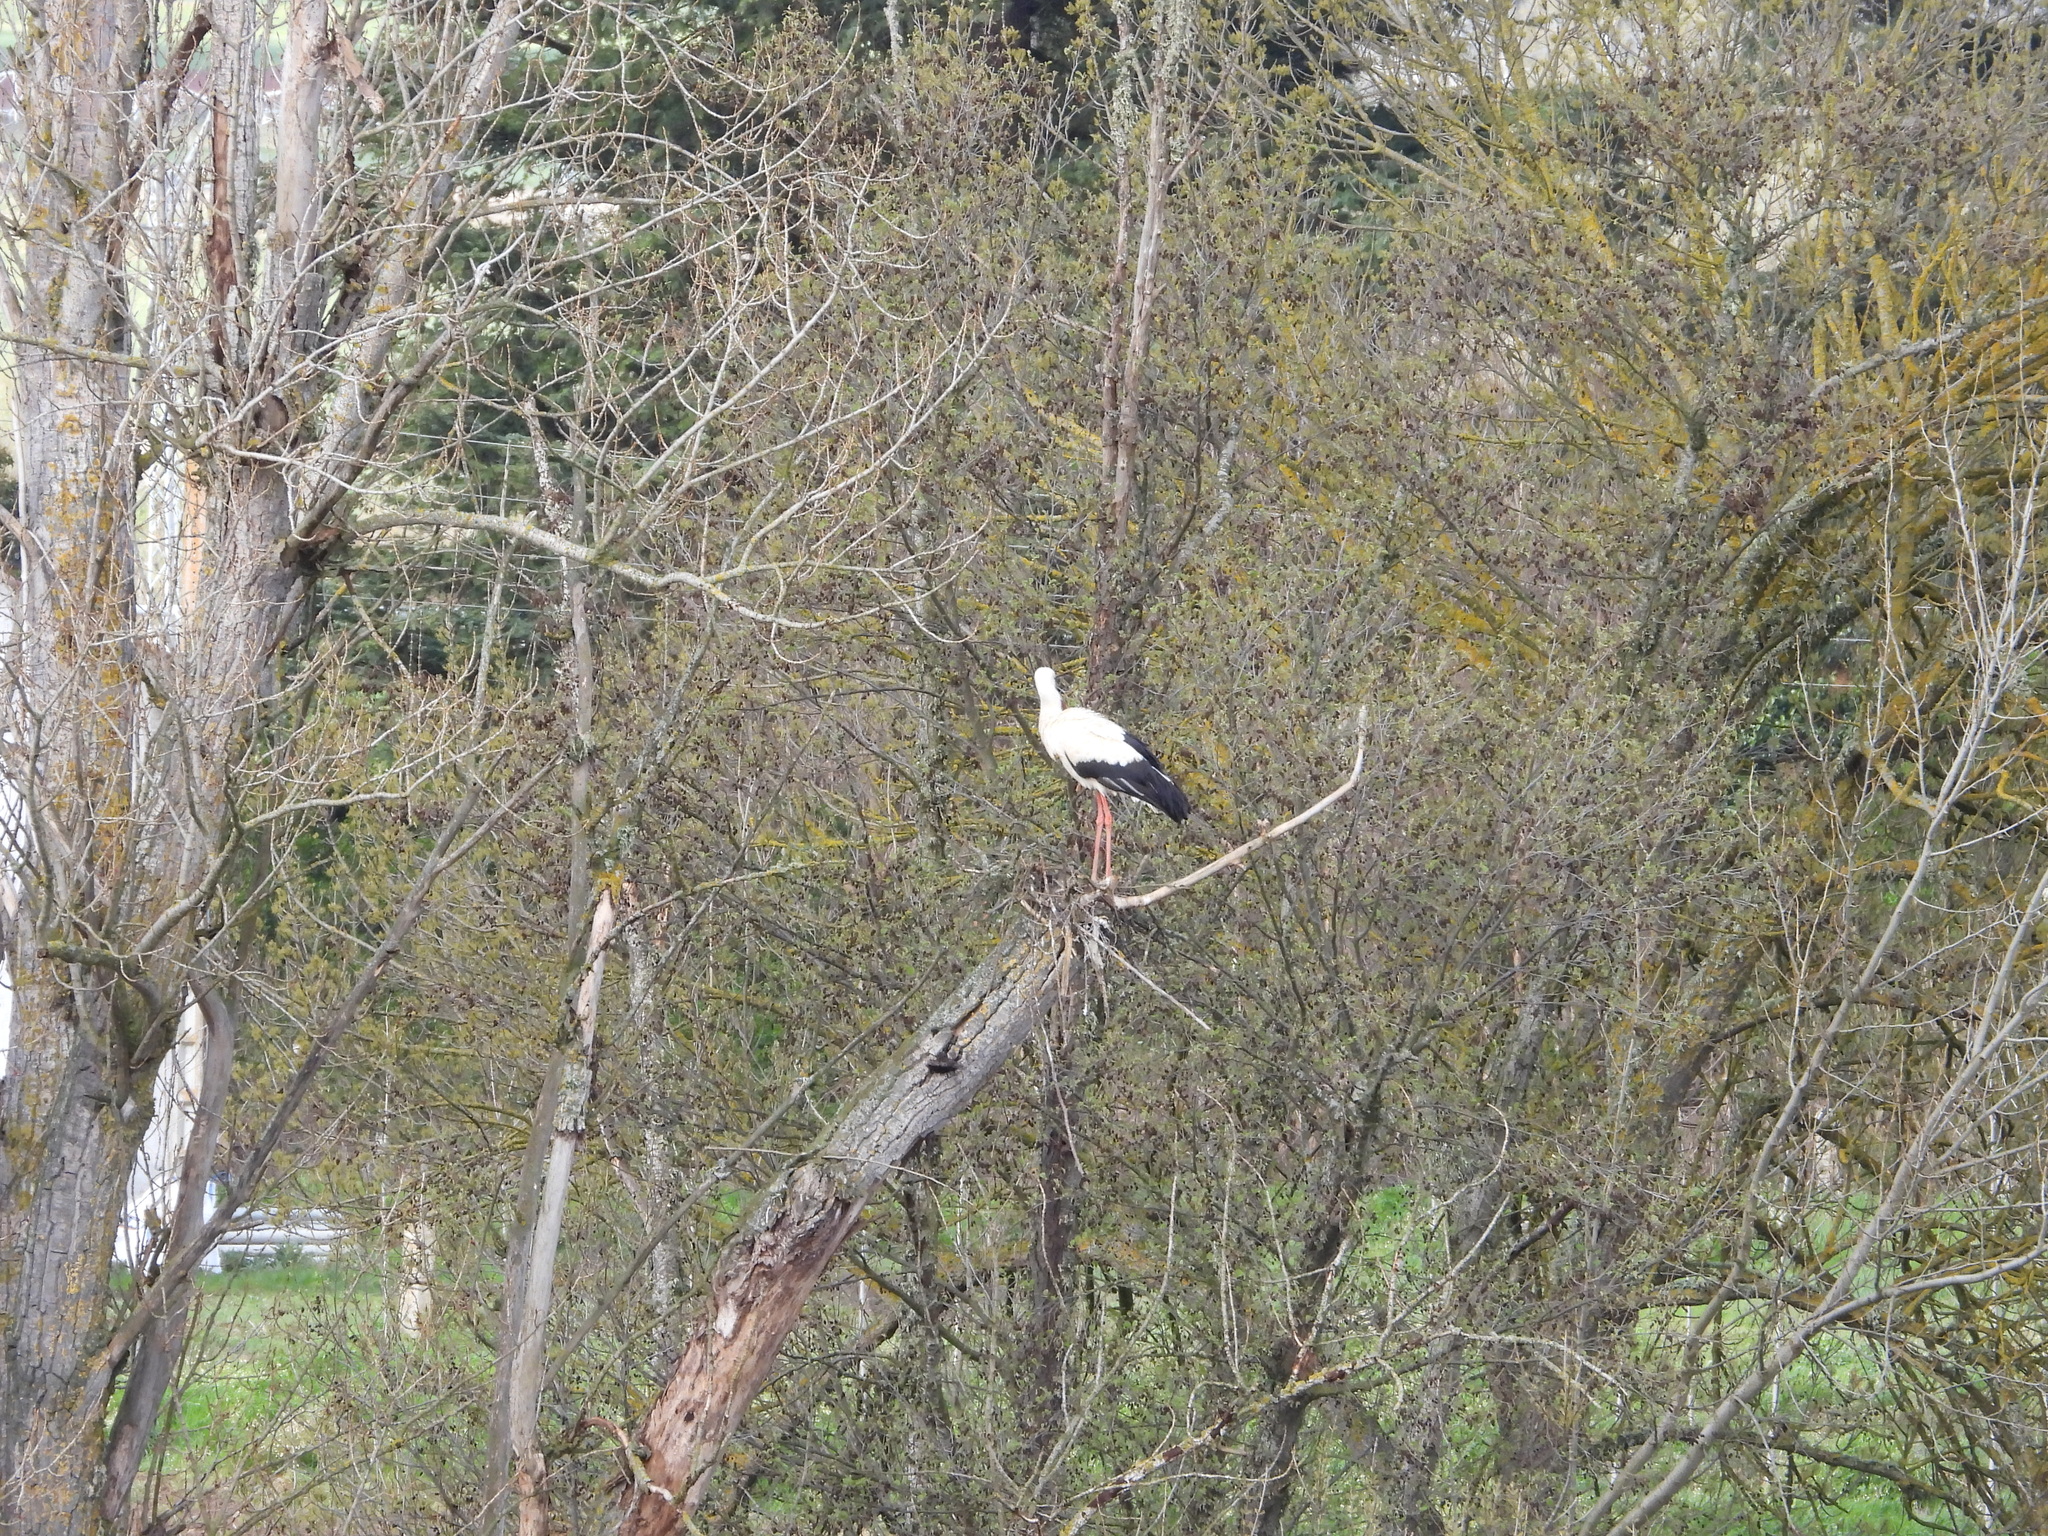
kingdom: Animalia
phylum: Chordata
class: Aves
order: Ciconiiformes
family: Ciconiidae
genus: Ciconia
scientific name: Ciconia ciconia
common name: White stork
